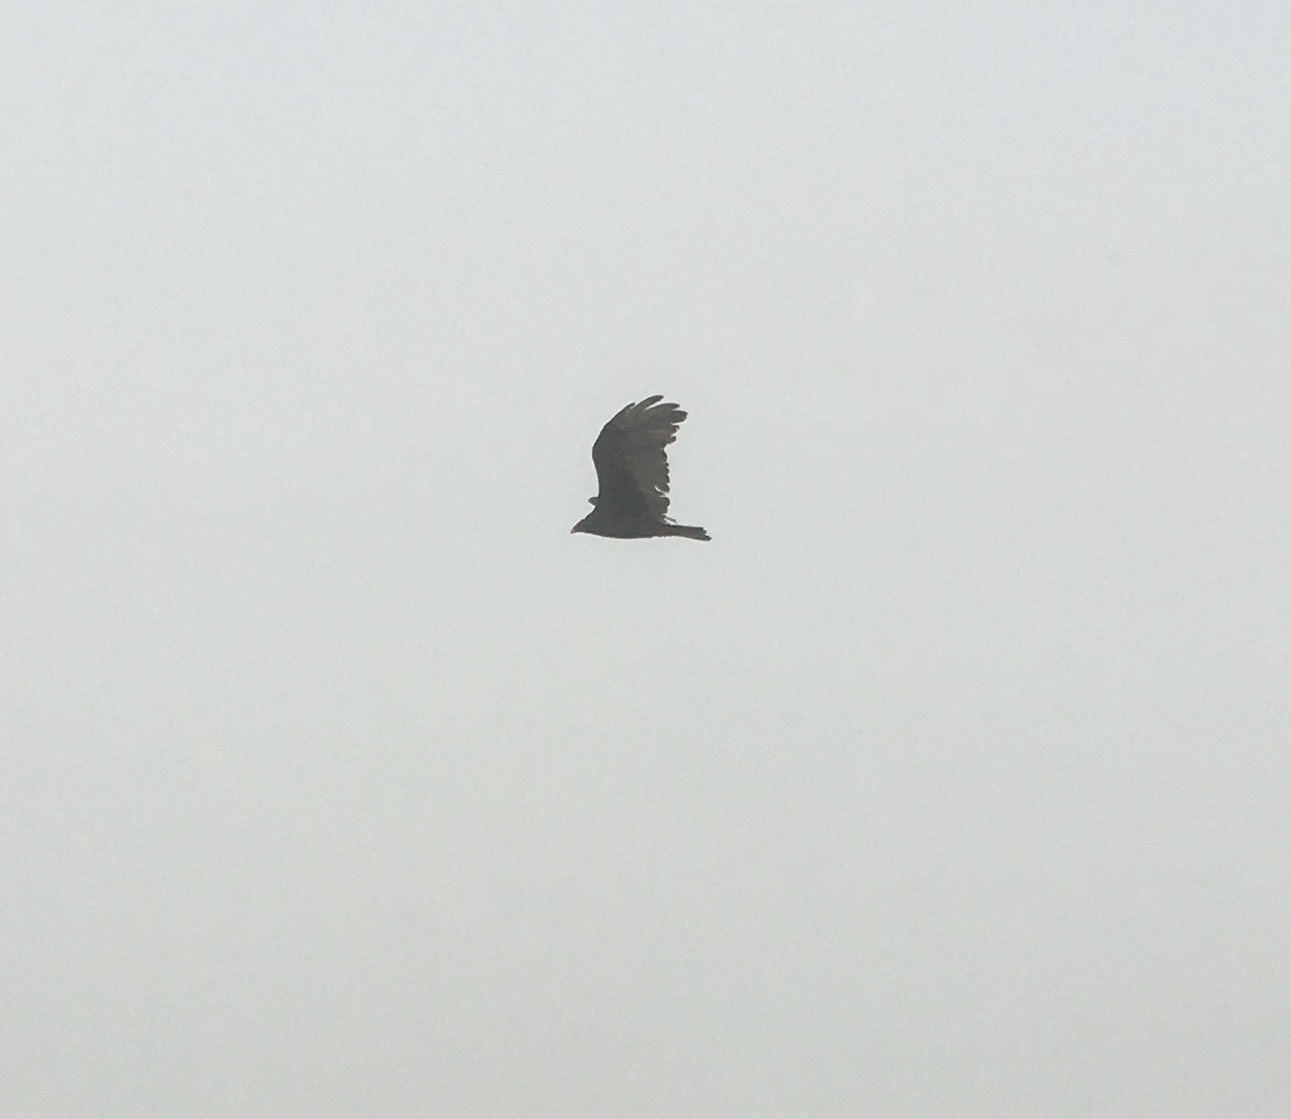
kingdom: Animalia
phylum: Chordata
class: Aves
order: Accipitriformes
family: Cathartidae
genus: Cathartes
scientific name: Cathartes aura
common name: Turkey vulture
